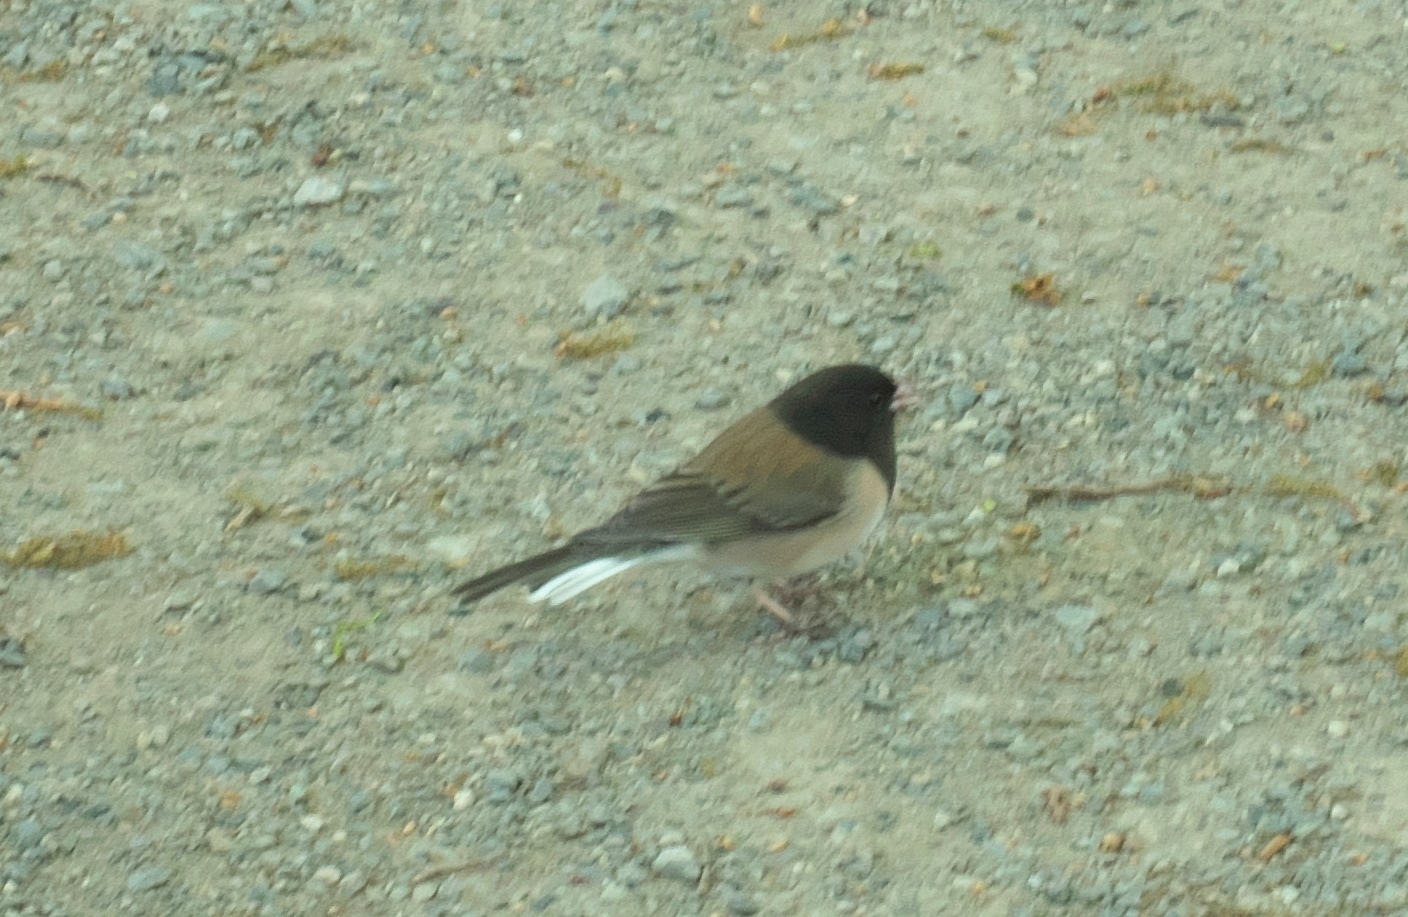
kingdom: Animalia
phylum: Chordata
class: Aves
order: Passeriformes
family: Passerellidae
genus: Junco
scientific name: Junco hyemalis
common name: Dark-eyed junco
